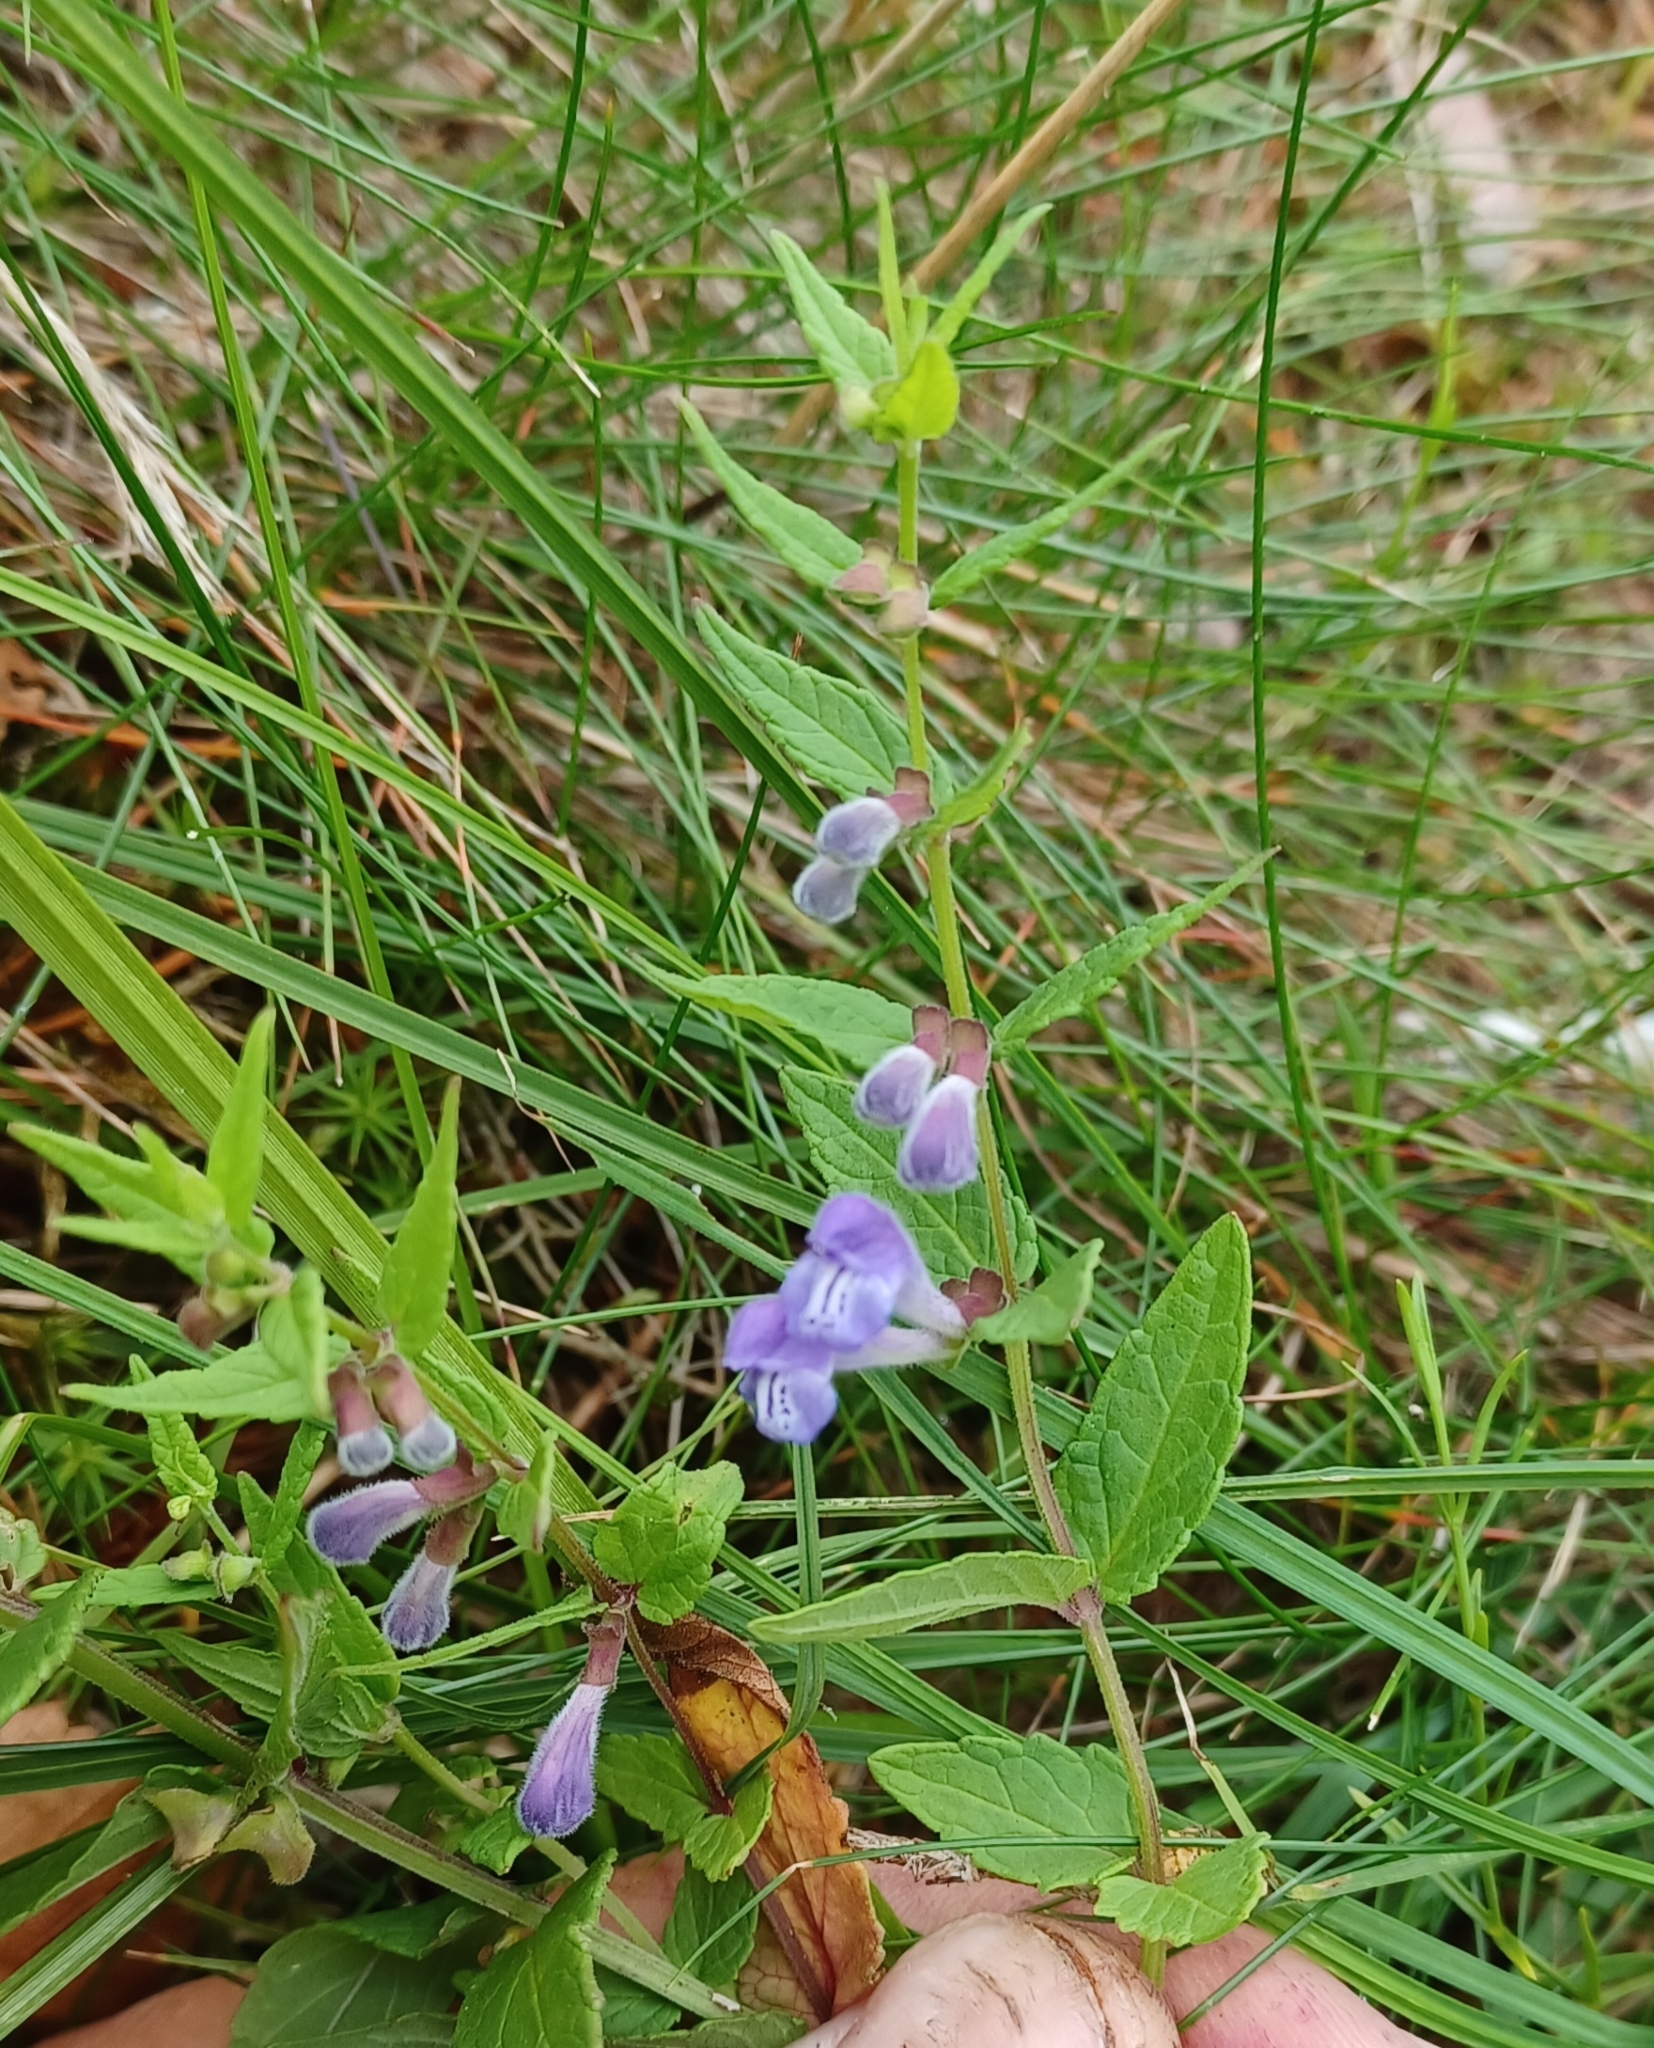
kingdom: Plantae
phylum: Tracheophyta
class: Magnoliopsida
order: Lamiales
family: Lamiaceae
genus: Scutellaria
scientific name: Scutellaria galericulata
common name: Skullcap
